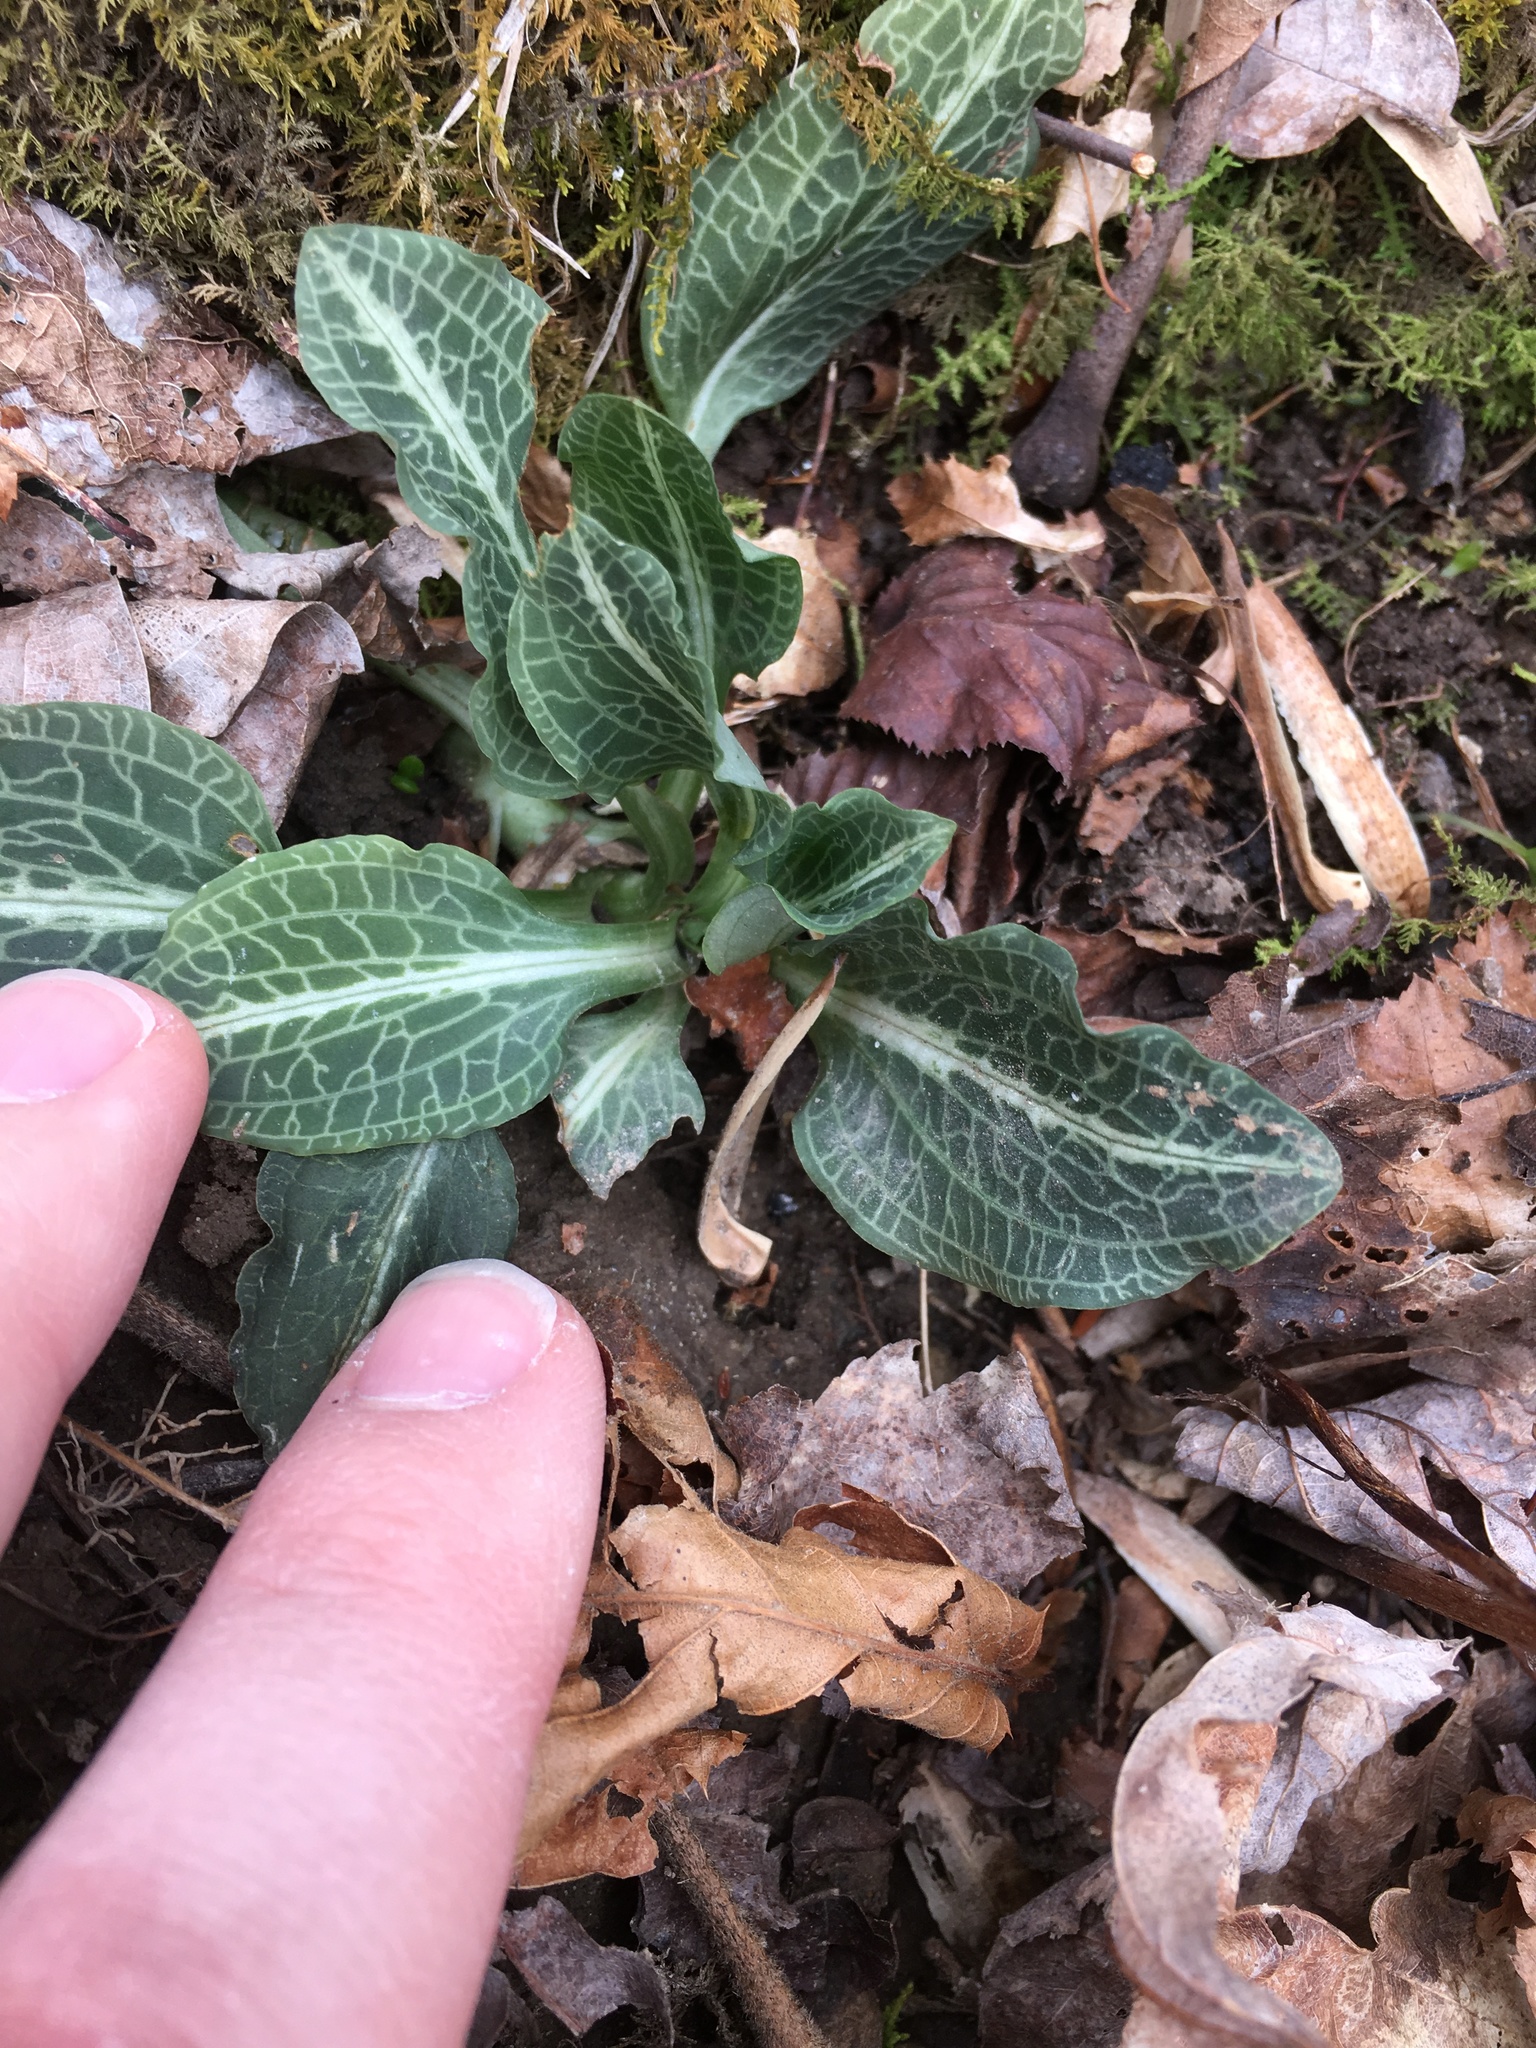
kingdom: Plantae
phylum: Tracheophyta
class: Liliopsida
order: Asparagales
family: Orchidaceae
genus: Goodyera
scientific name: Goodyera pubescens
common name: Downy rattlesnake-plantain
